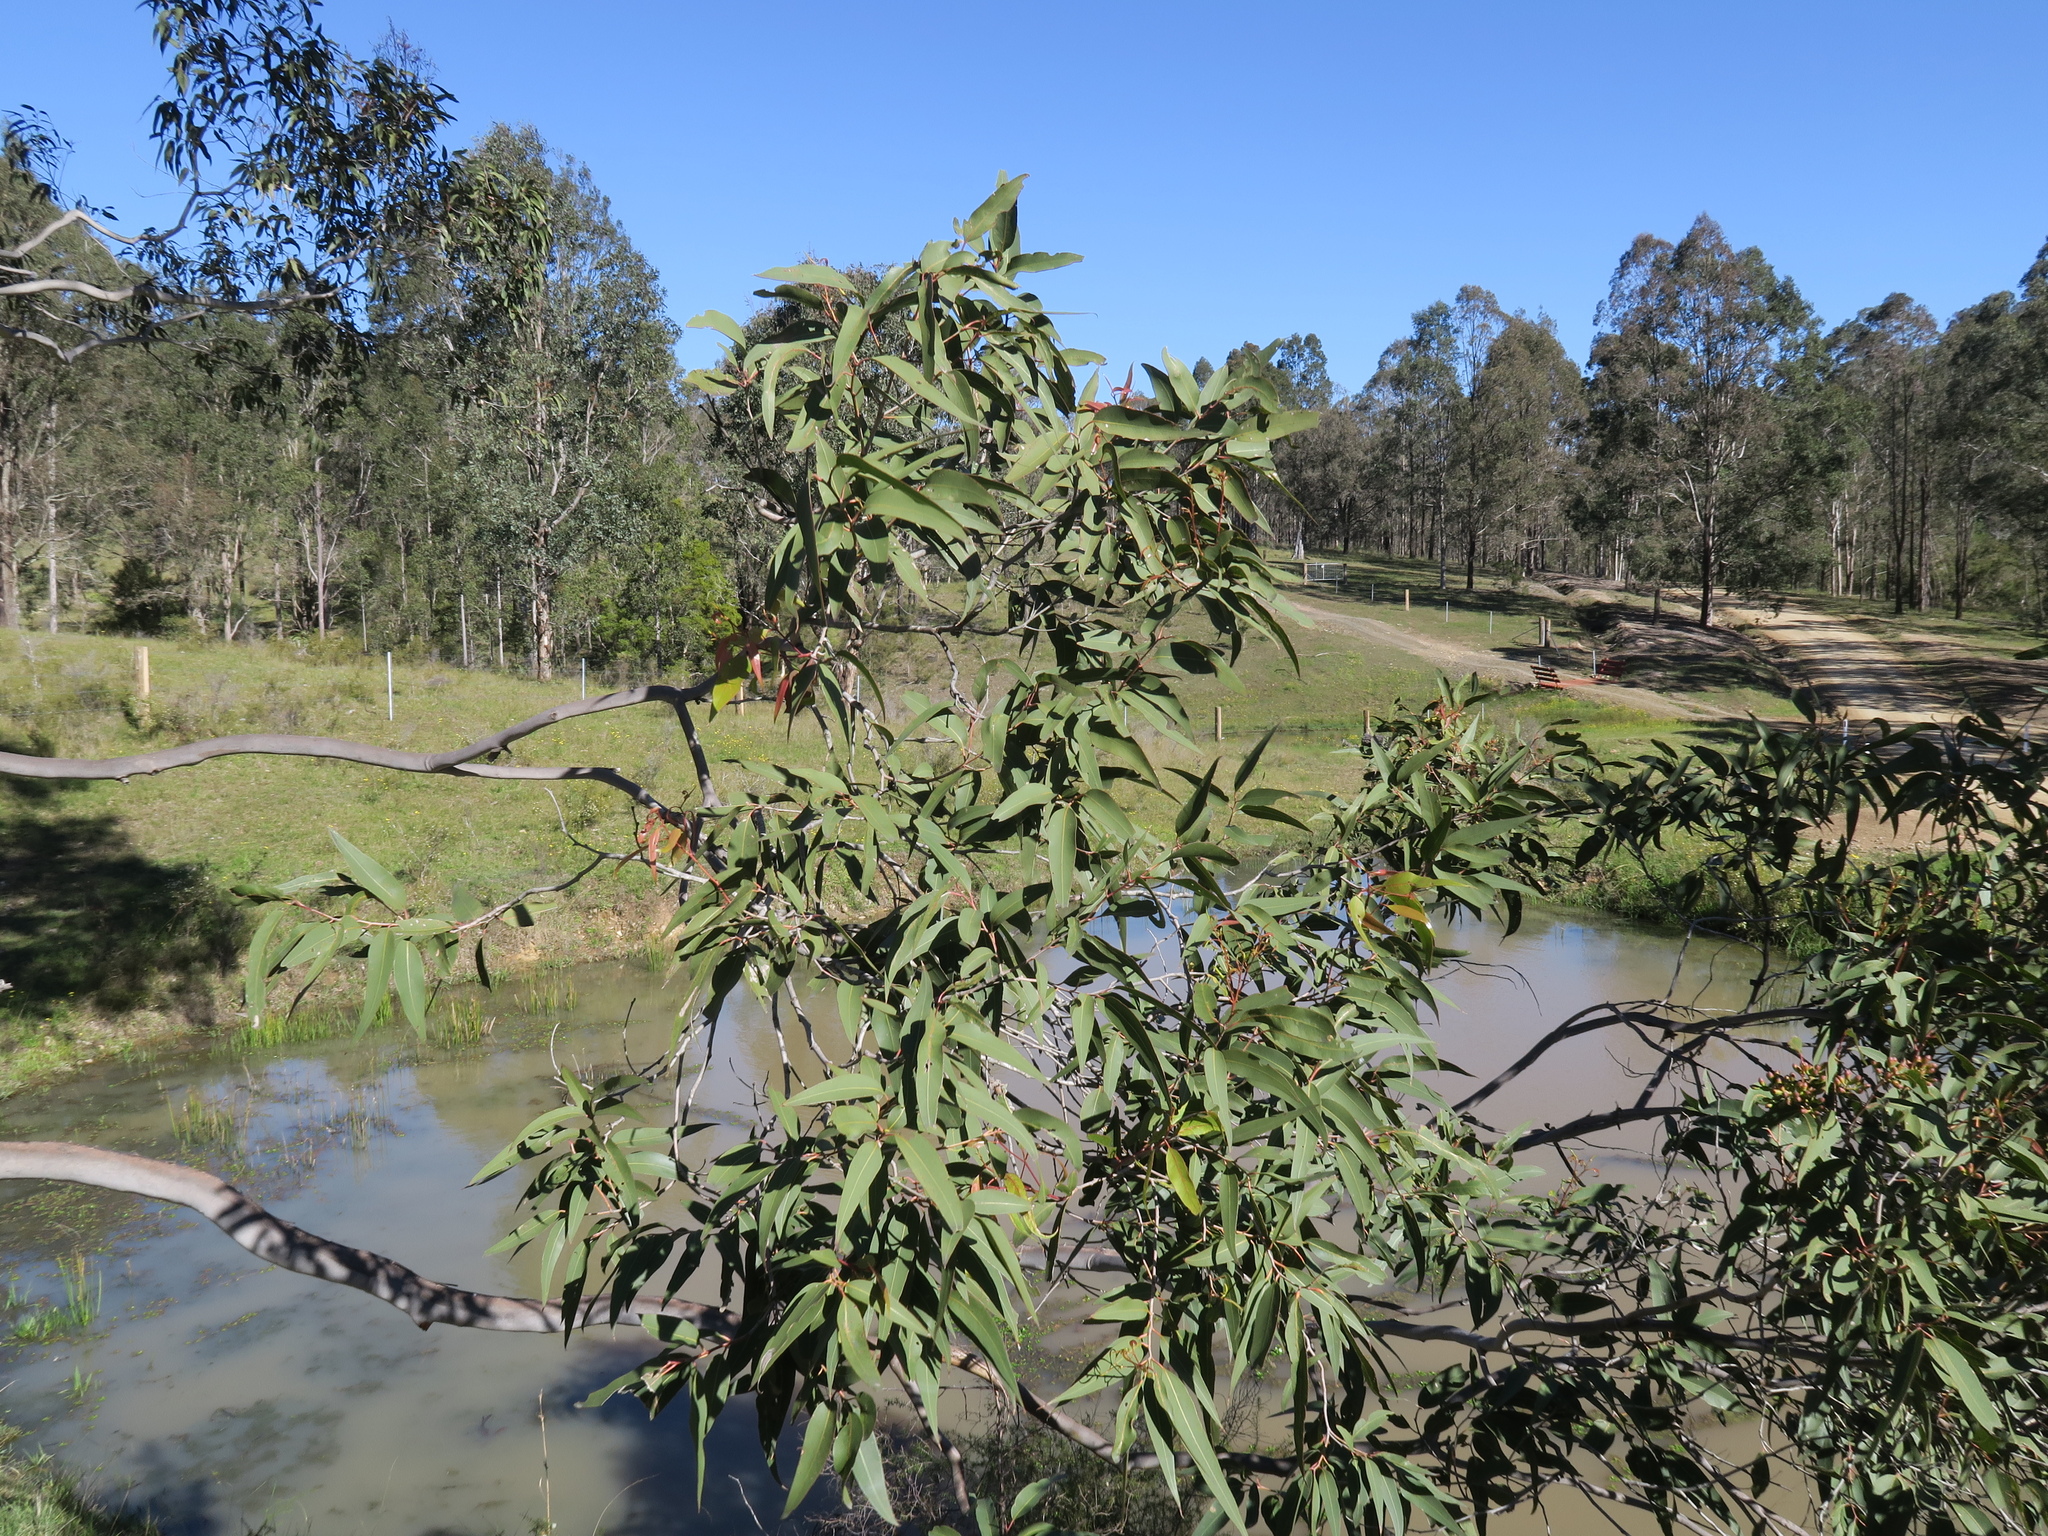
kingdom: Plantae
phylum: Tracheophyta
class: Magnoliopsida
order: Myrtales
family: Myrtaceae
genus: Corymbia
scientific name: Corymbia maculata
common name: Spotted gum
